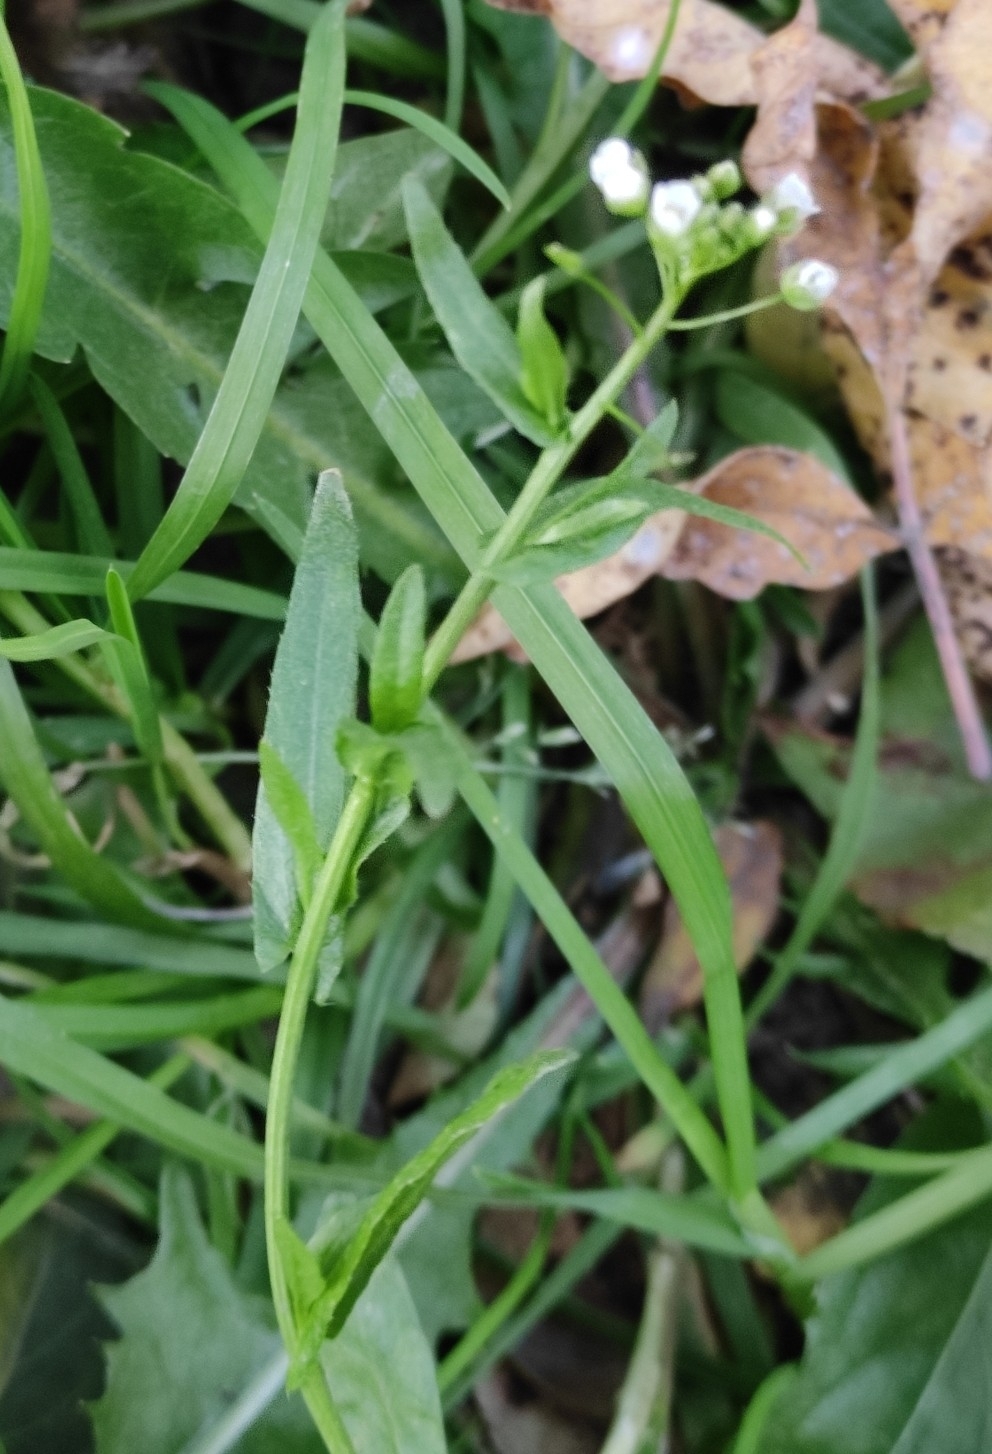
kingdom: Plantae
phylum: Tracheophyta
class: Magnoliopsida
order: Brassicales
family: Brassicaceae
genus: Capsella
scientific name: Capsella bursa-pastoris
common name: Shepherd's purse
